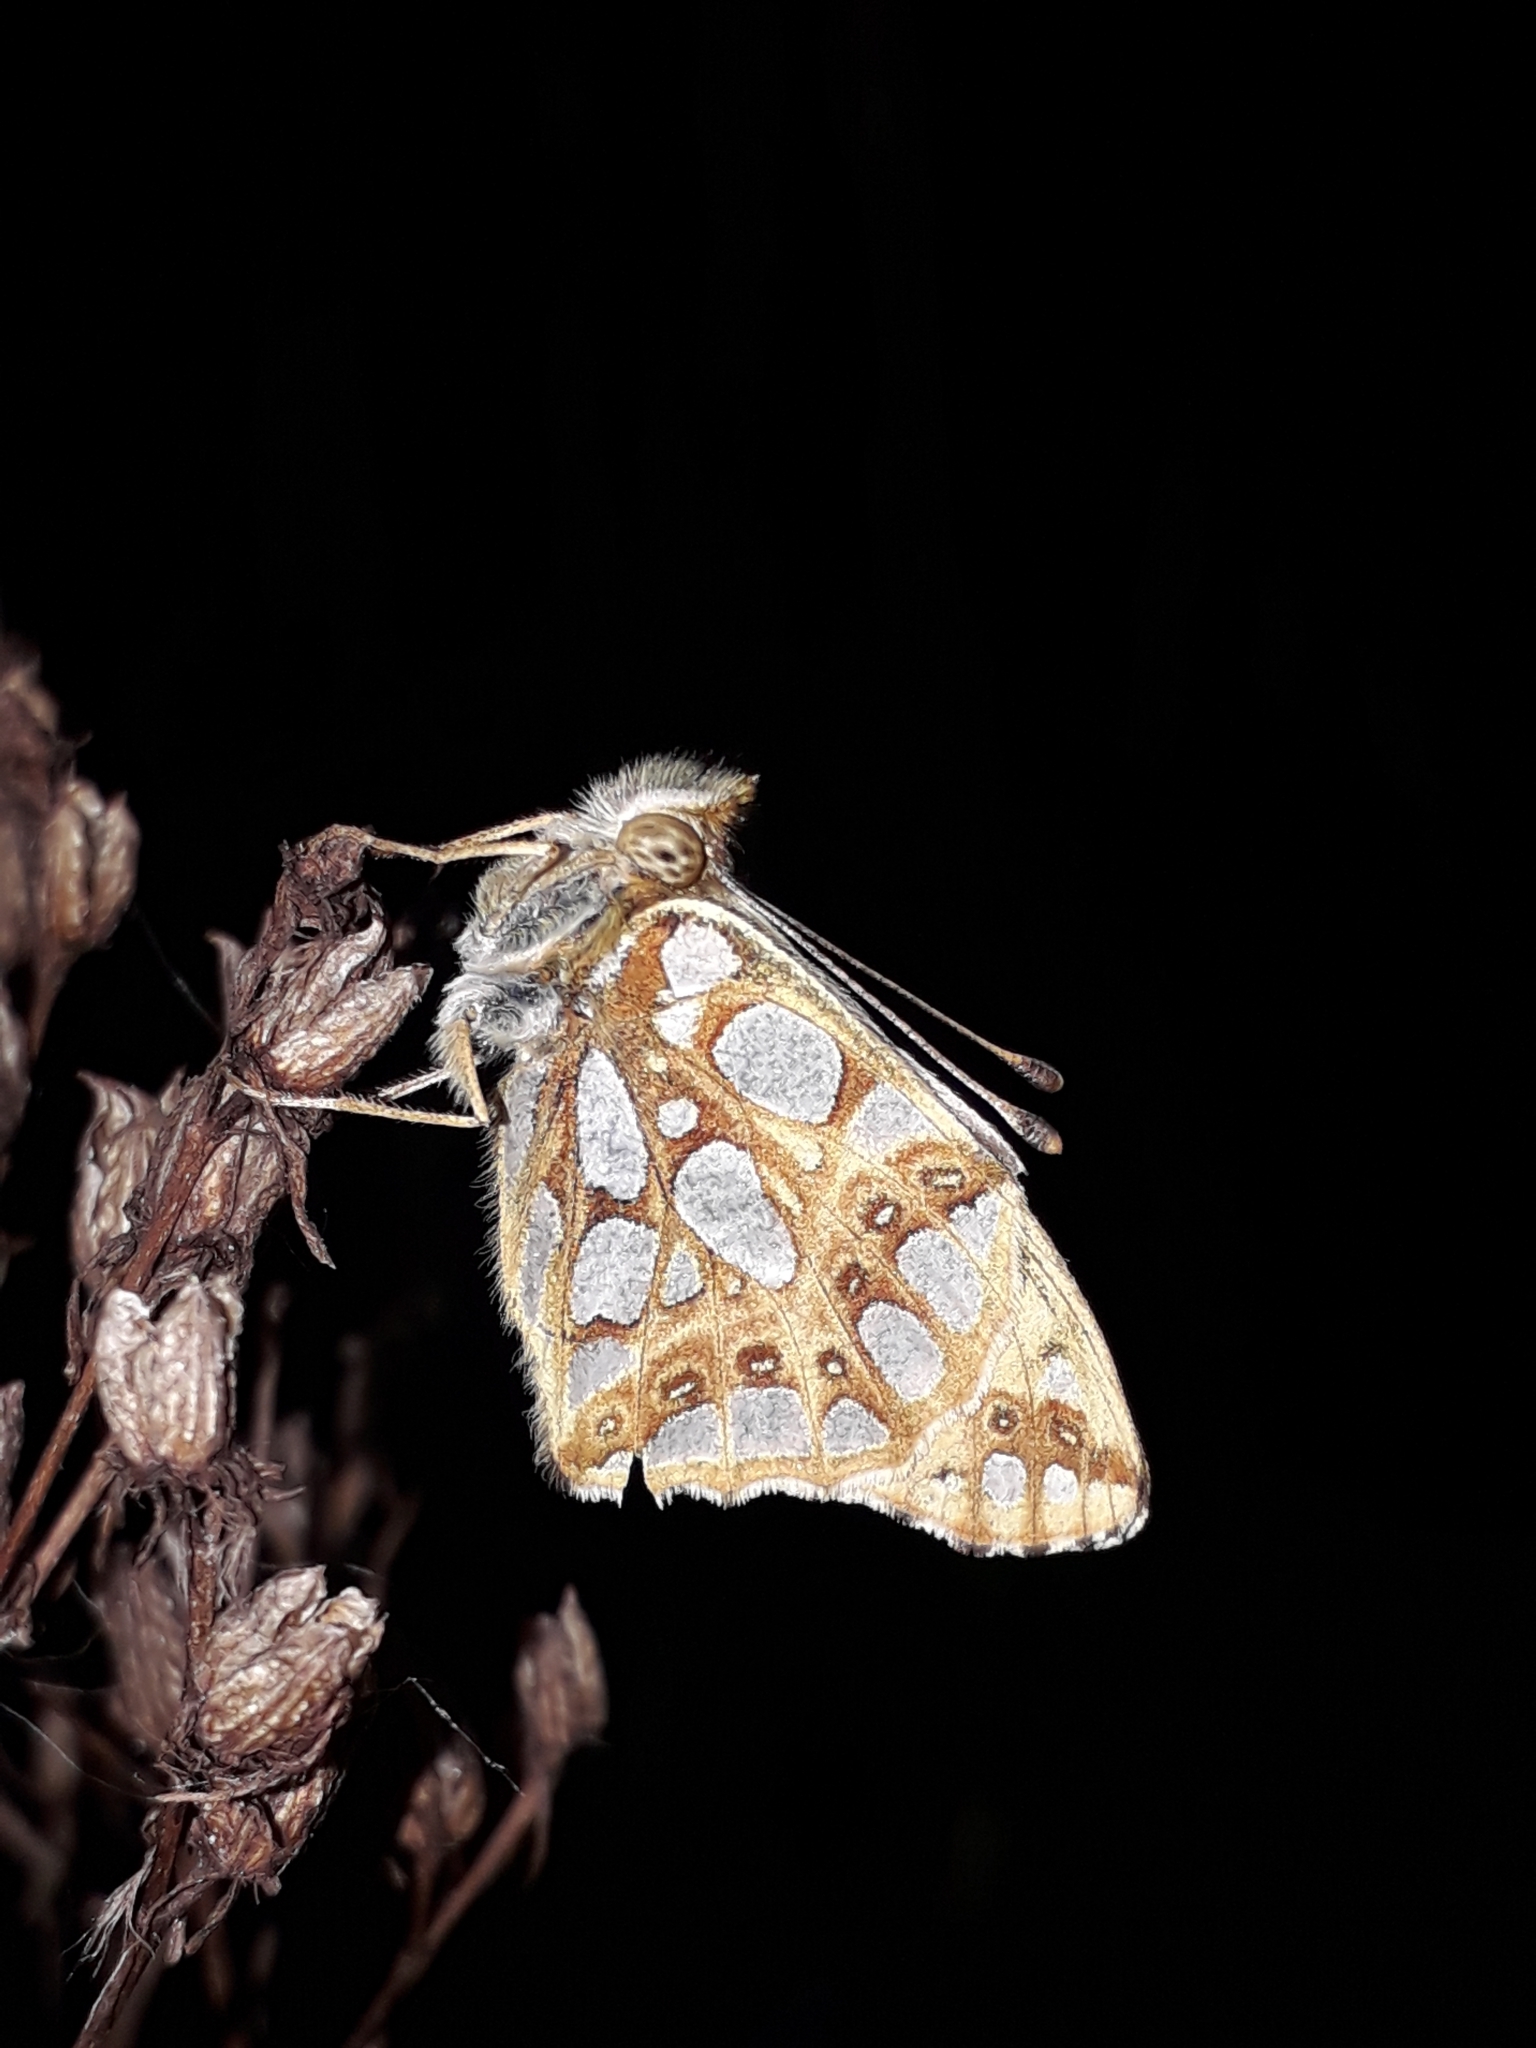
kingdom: Animalia
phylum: Arthropoda
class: Insecta
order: Lepidoptera
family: Nymphalidae
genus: Issoria
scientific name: Issoria lathonia
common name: Queen of spain fritillary
